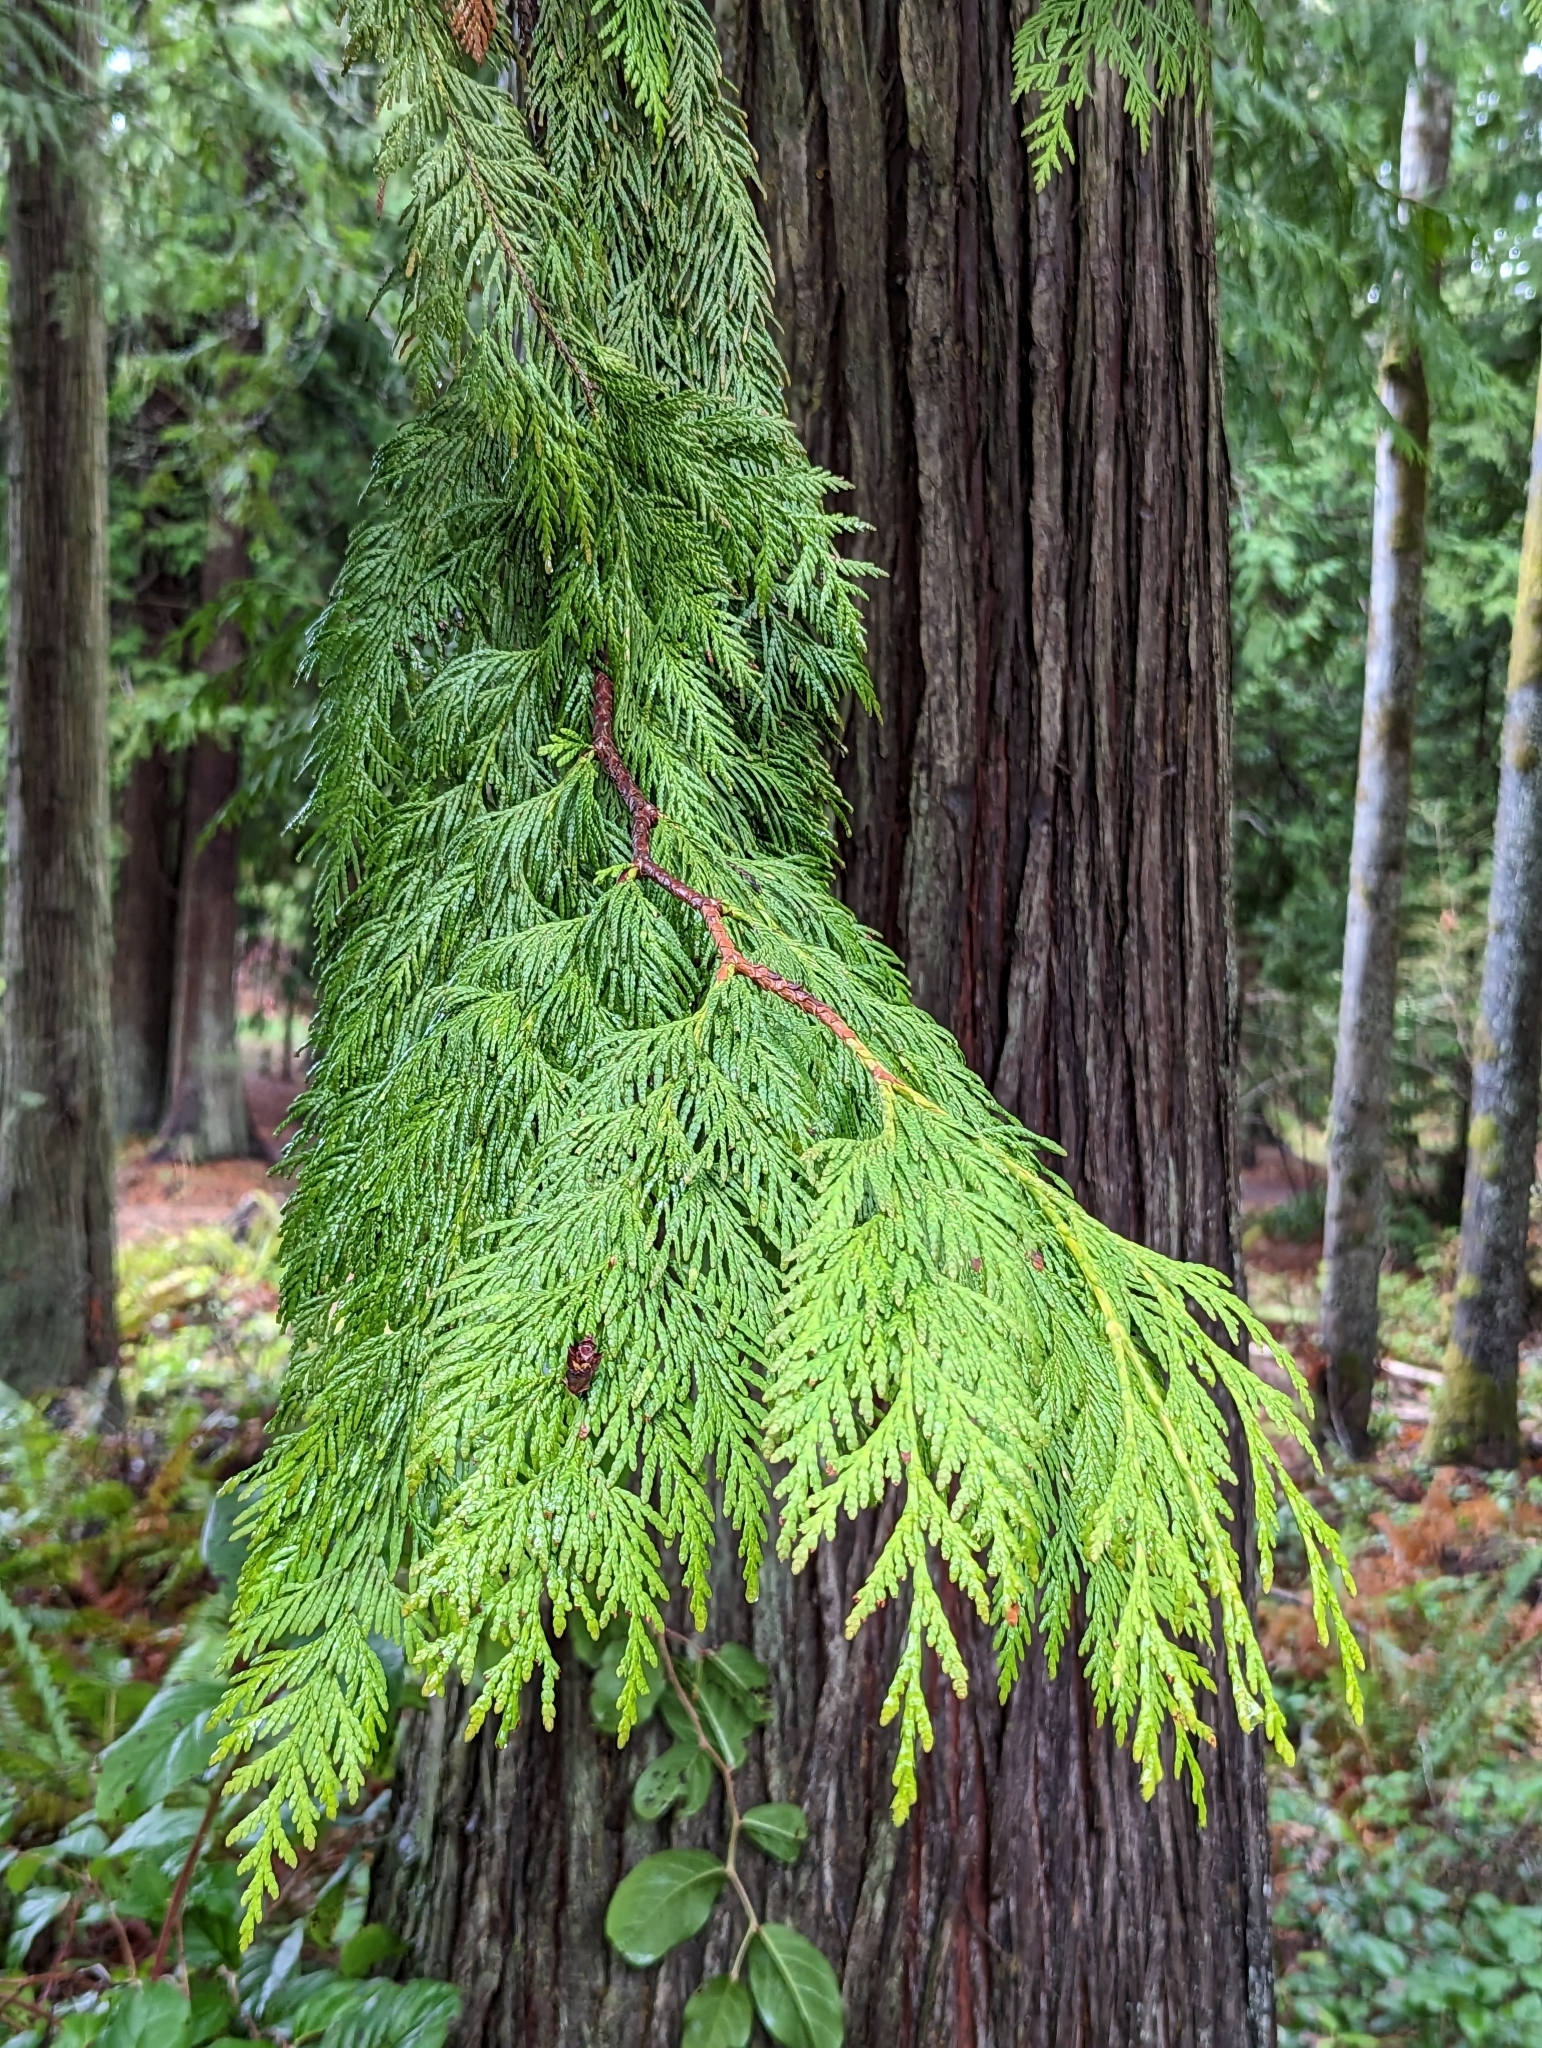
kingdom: Plantae
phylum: Tracheophyta
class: Pinopsida
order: Pinales
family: Cupressaceae
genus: Thuja
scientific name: Thuja plicata
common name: Western red-cedar
